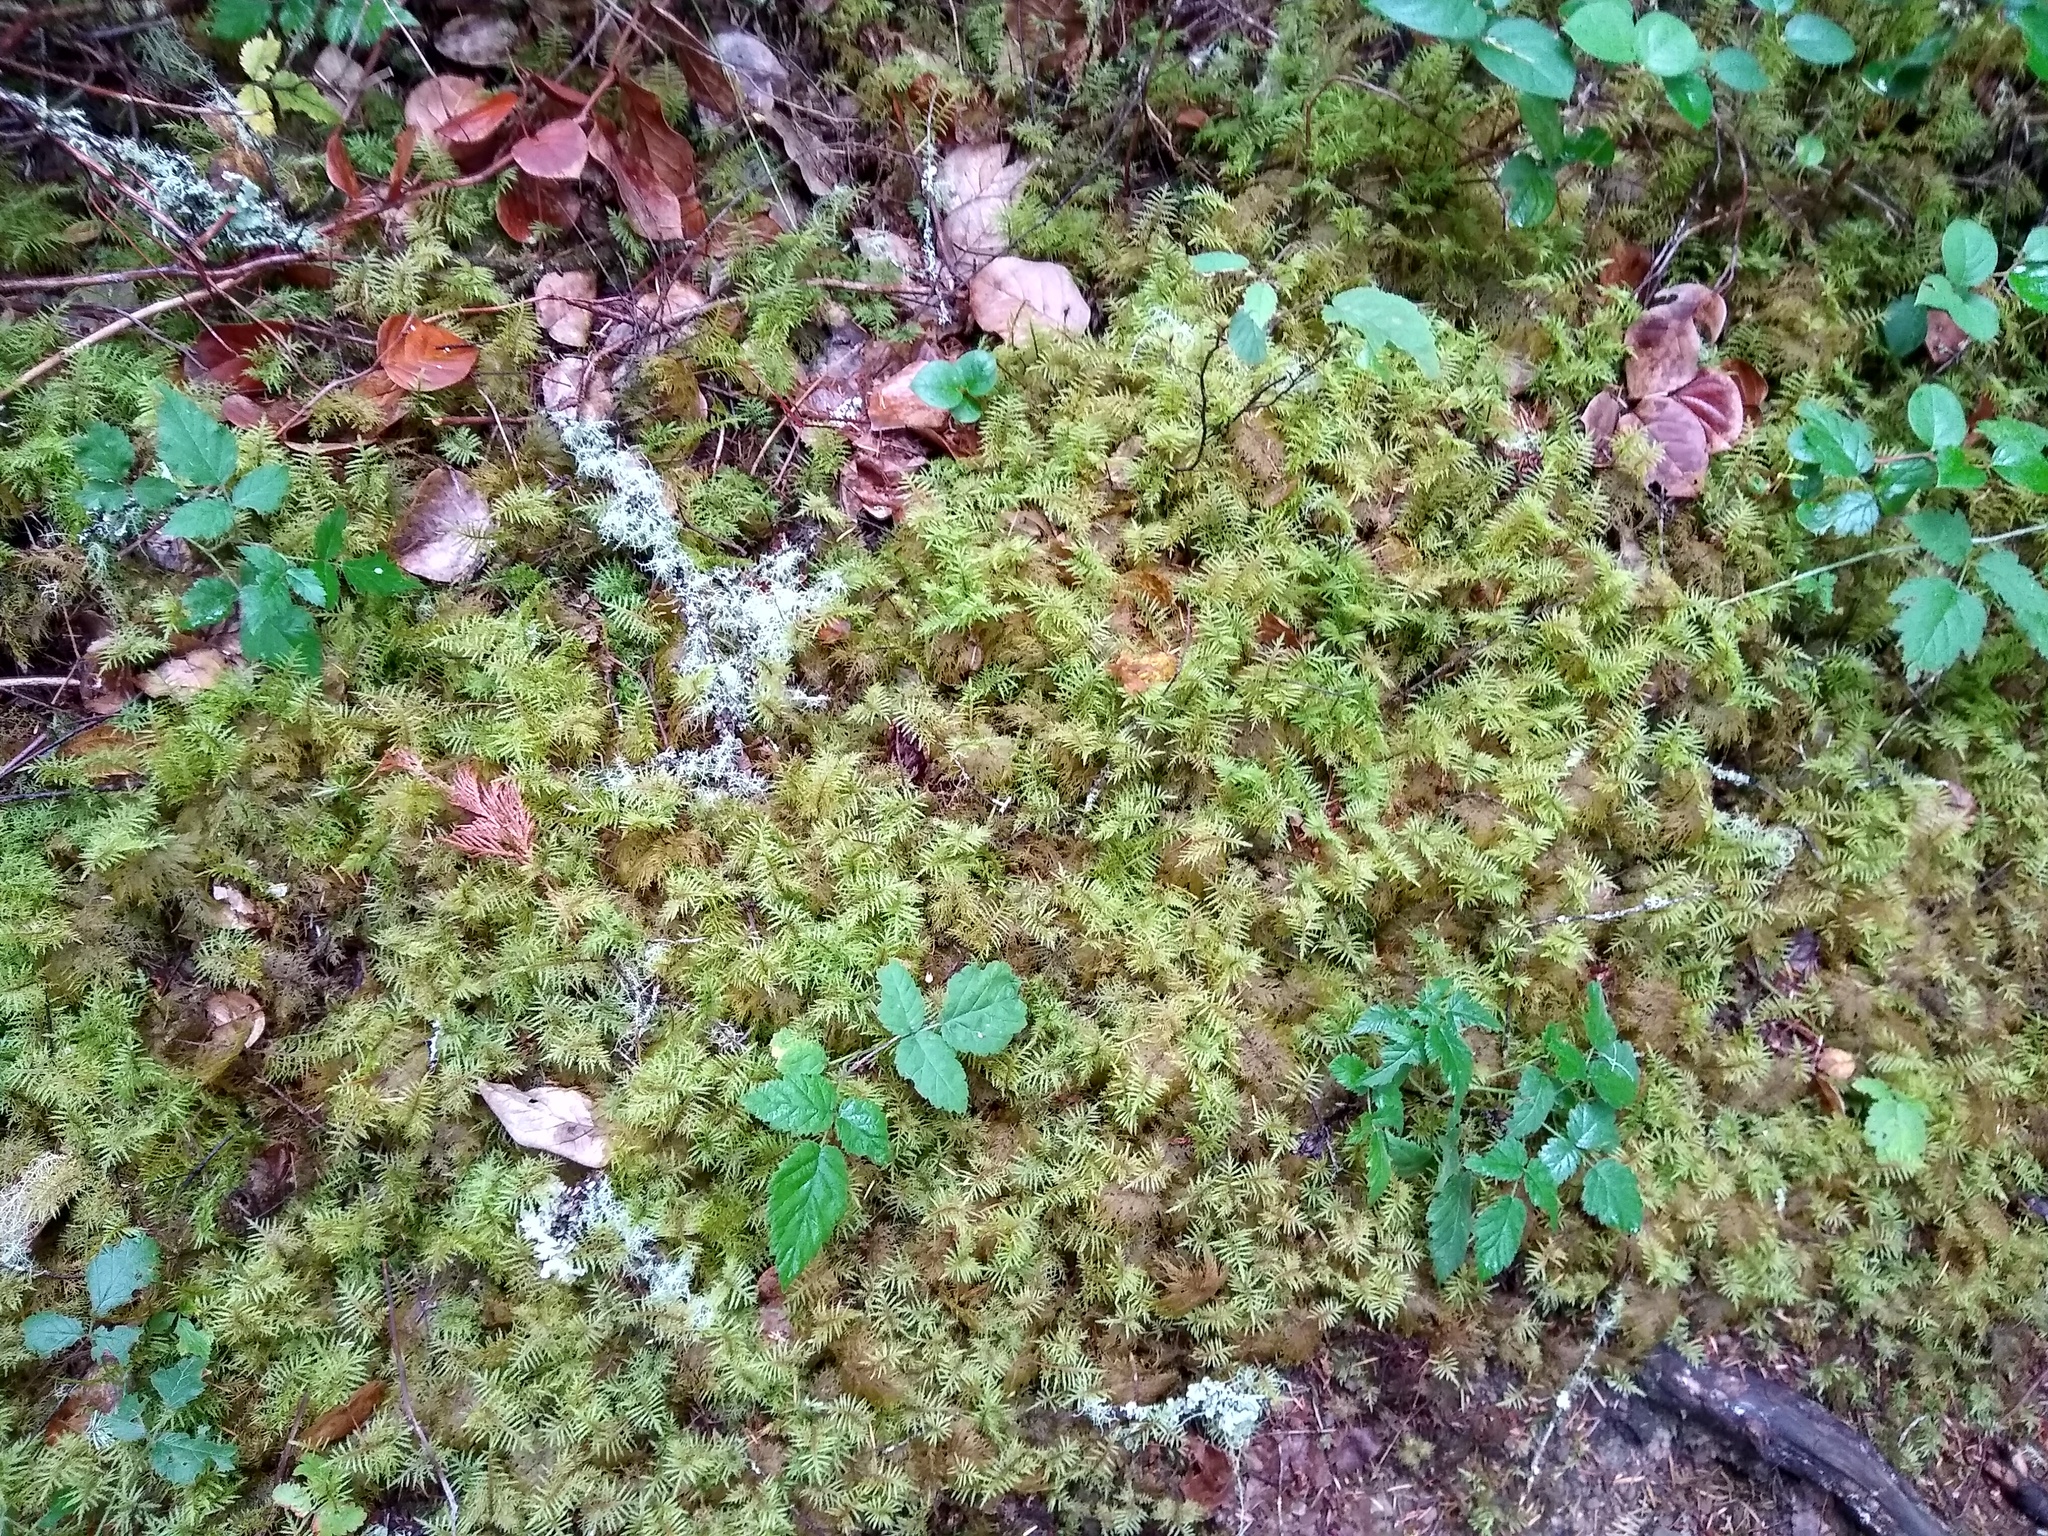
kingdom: Plantae
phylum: Bryophyta
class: Bryopsida
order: Hypnales
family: Hylocomiaceae
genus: Hylocomium
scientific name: Hylocomium splendens
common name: Stairstep moss
